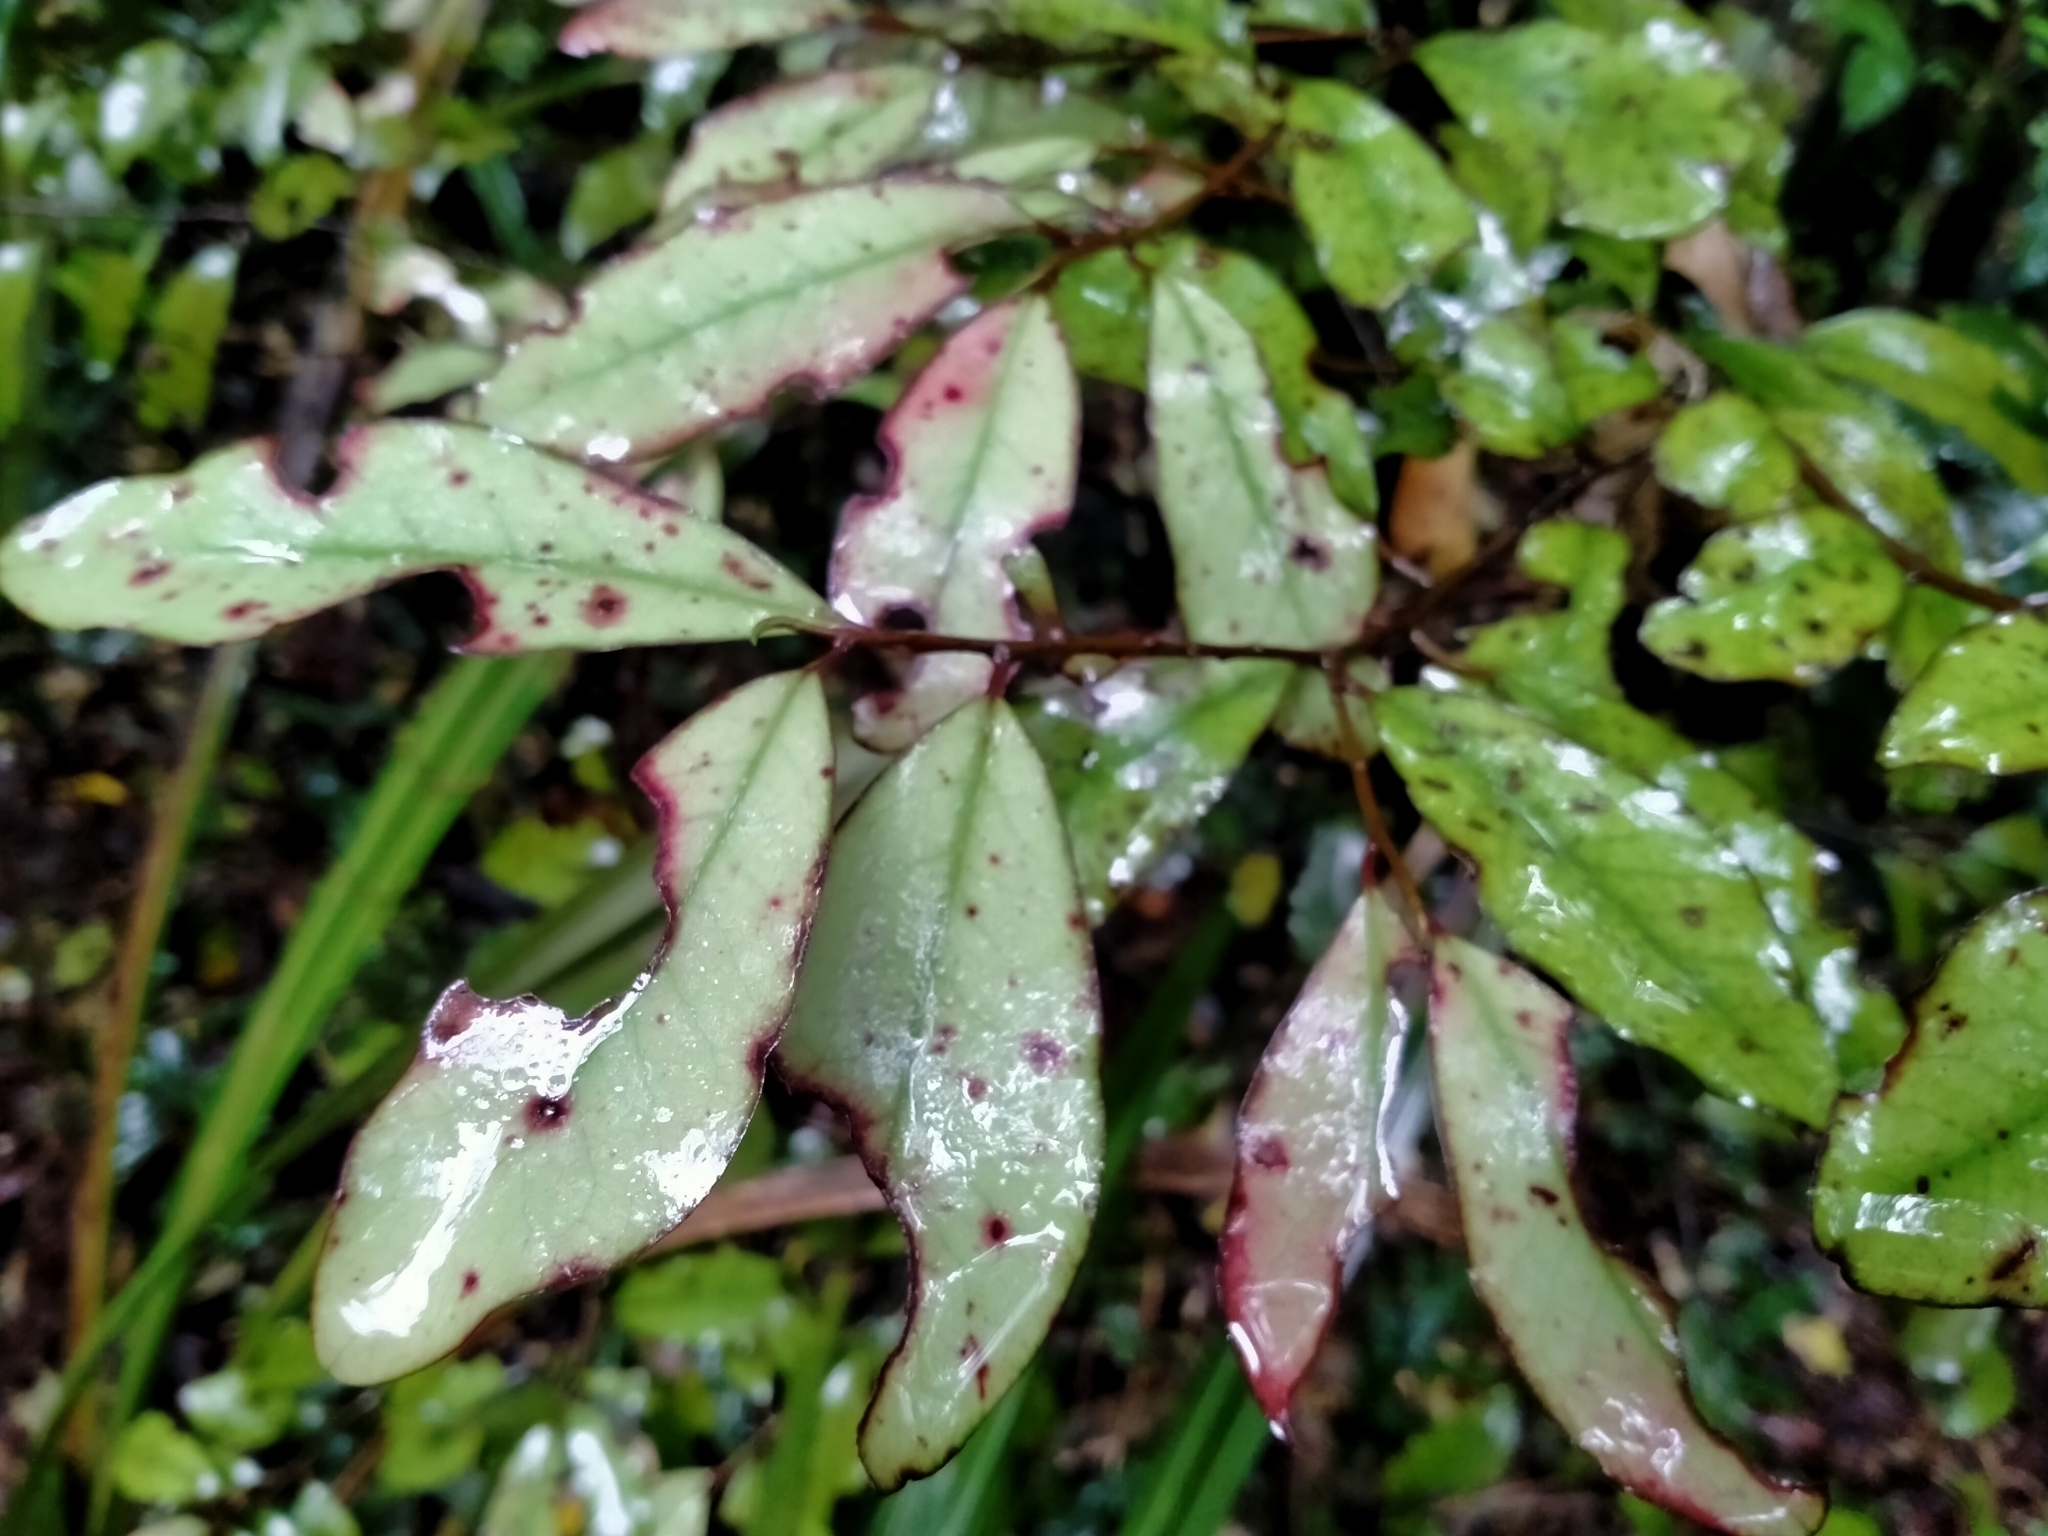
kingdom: Plantae
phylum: Tracheophyta
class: Magnoliopsida
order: Canellales
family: Winteraceae
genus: Pseudowintera
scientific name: Pseudowintera colorata
